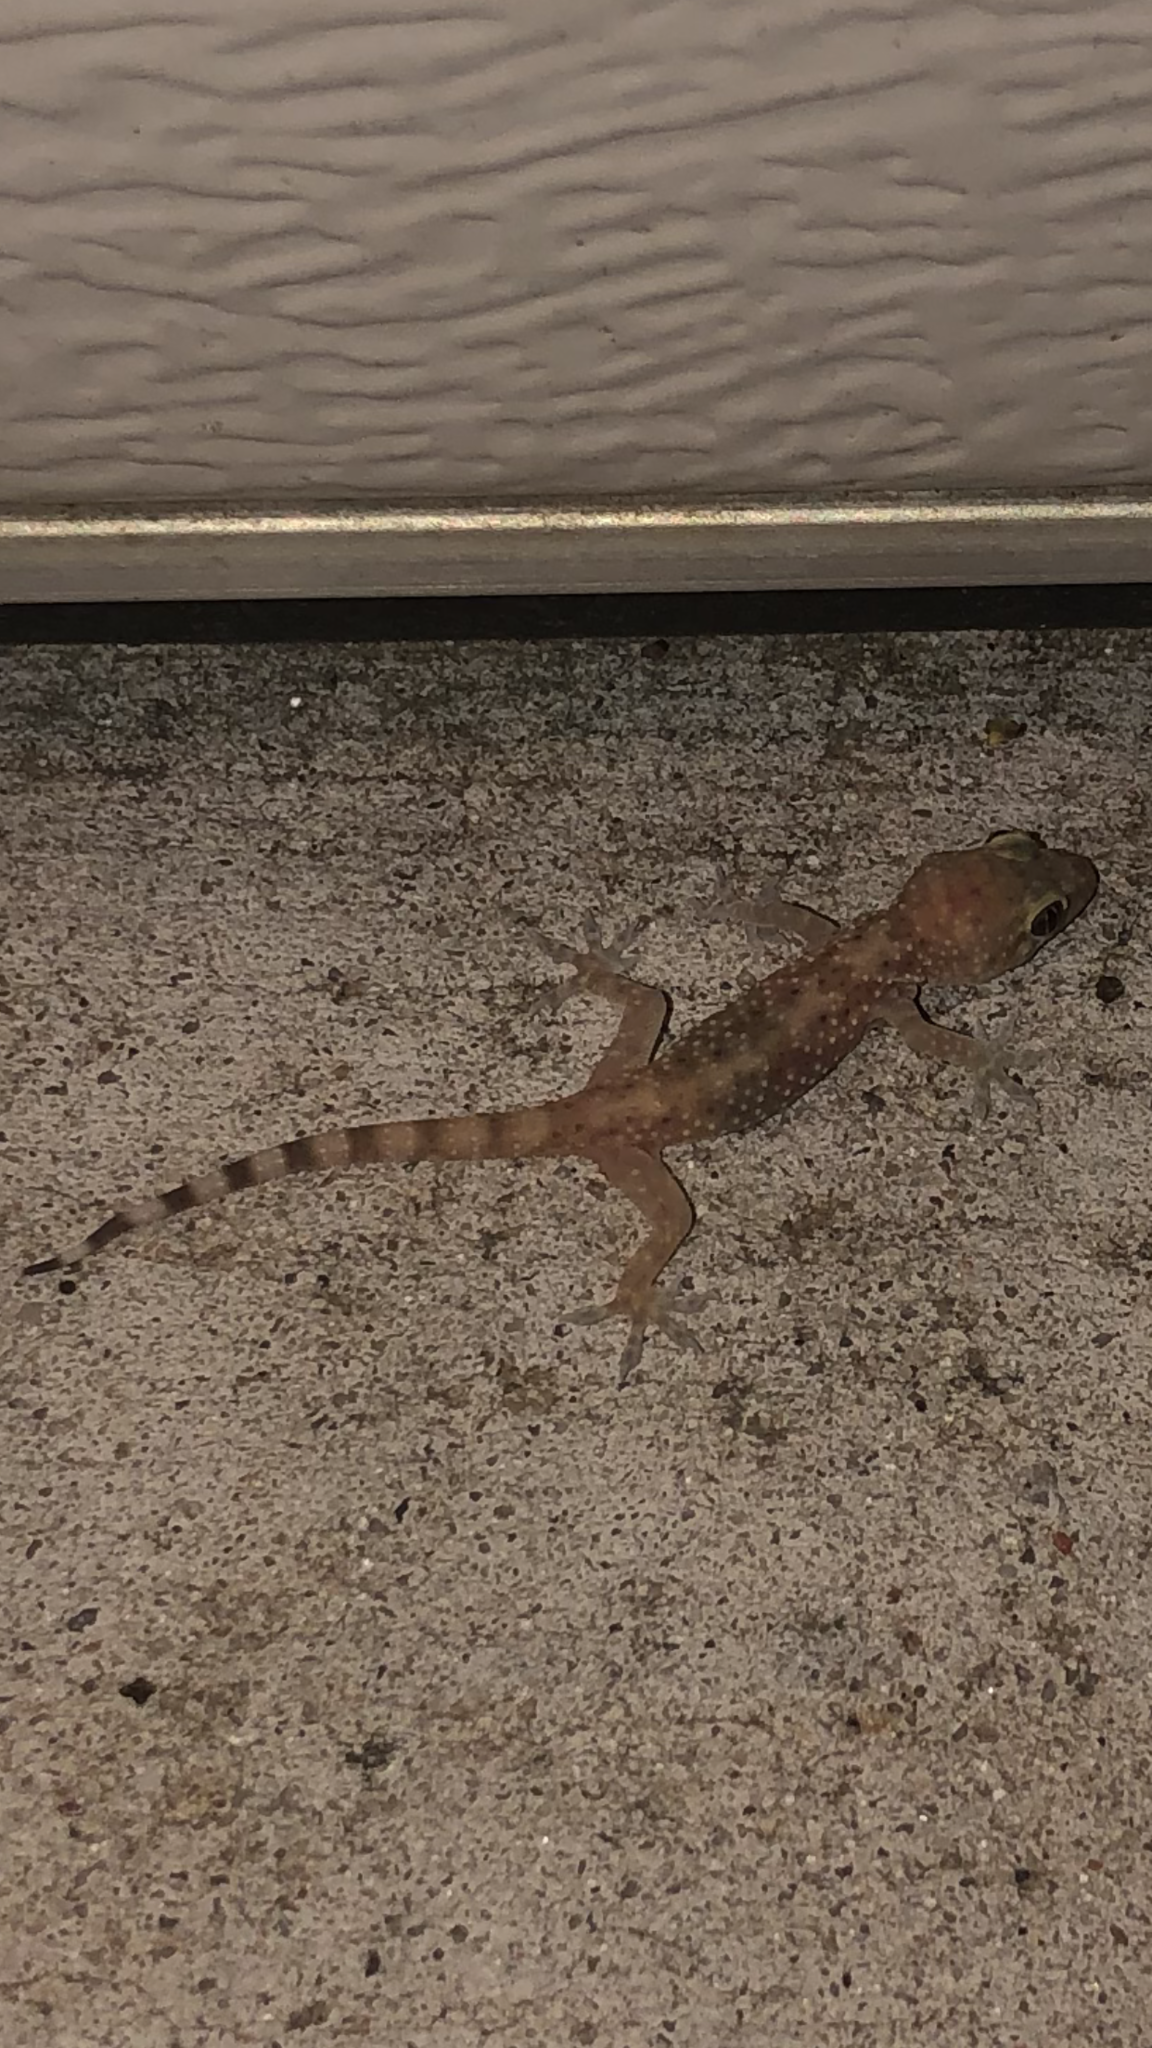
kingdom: Animalia
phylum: Chordata
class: Squamata
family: Gekkonidae
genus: Hemidactylus
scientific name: Hemidactylus turcicus
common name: Turkish gecko
